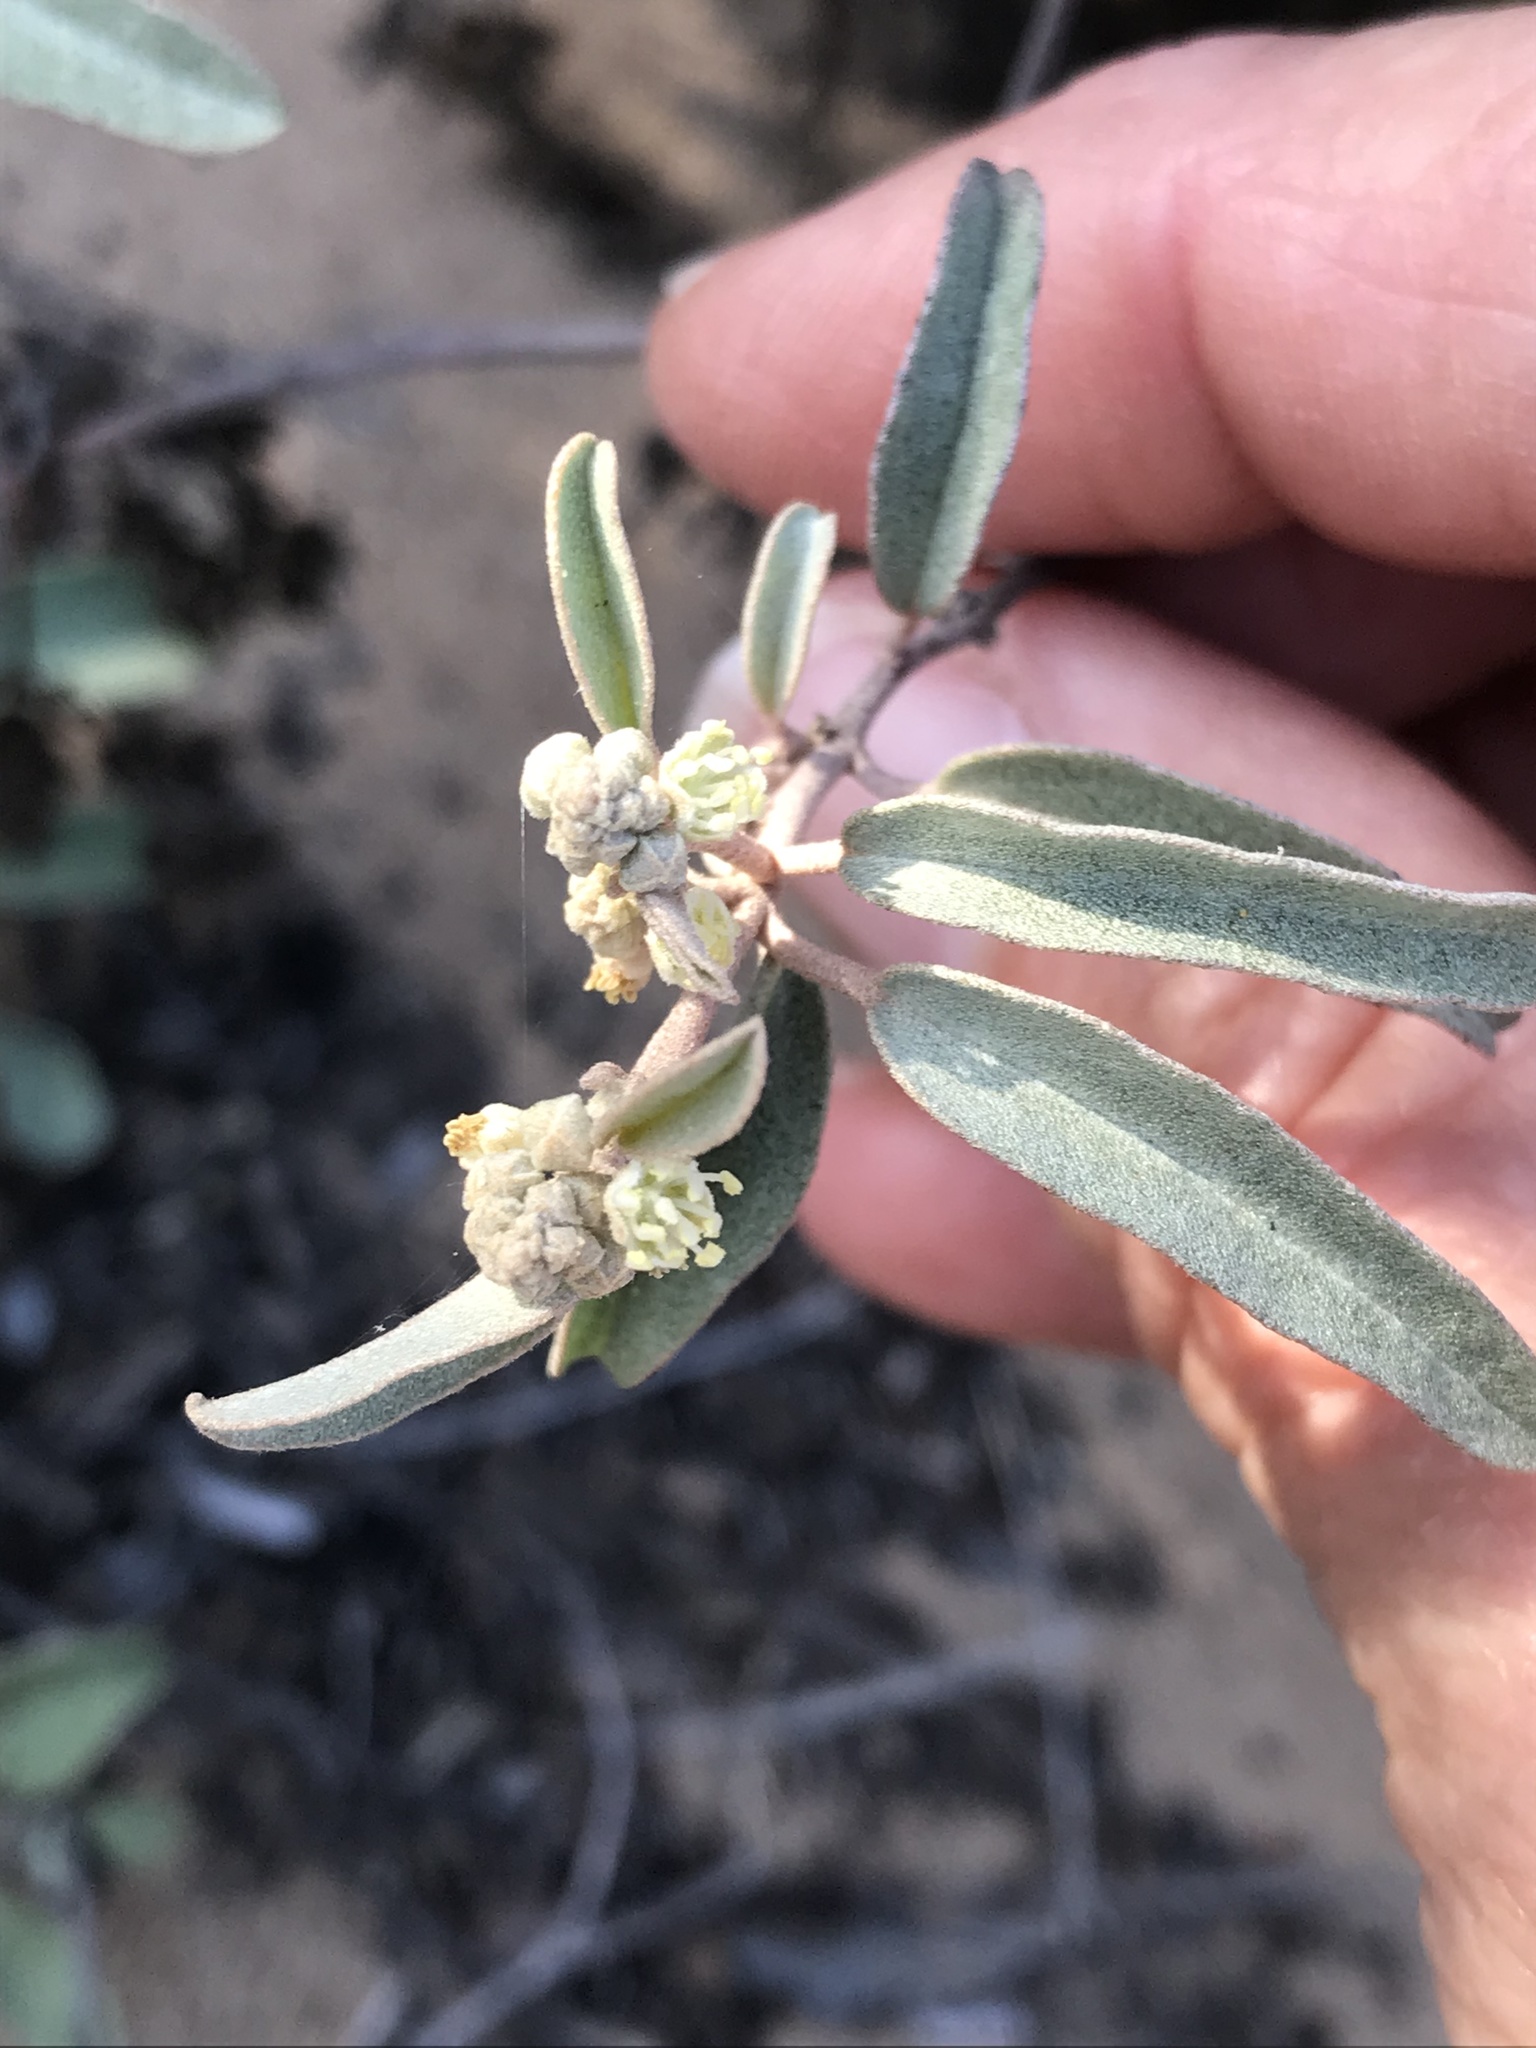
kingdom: Plantae
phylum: Tracheophyta
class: Magnoliopsida
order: Malpighiales
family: Euphorbiaceae
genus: Croton
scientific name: Croton californicus
